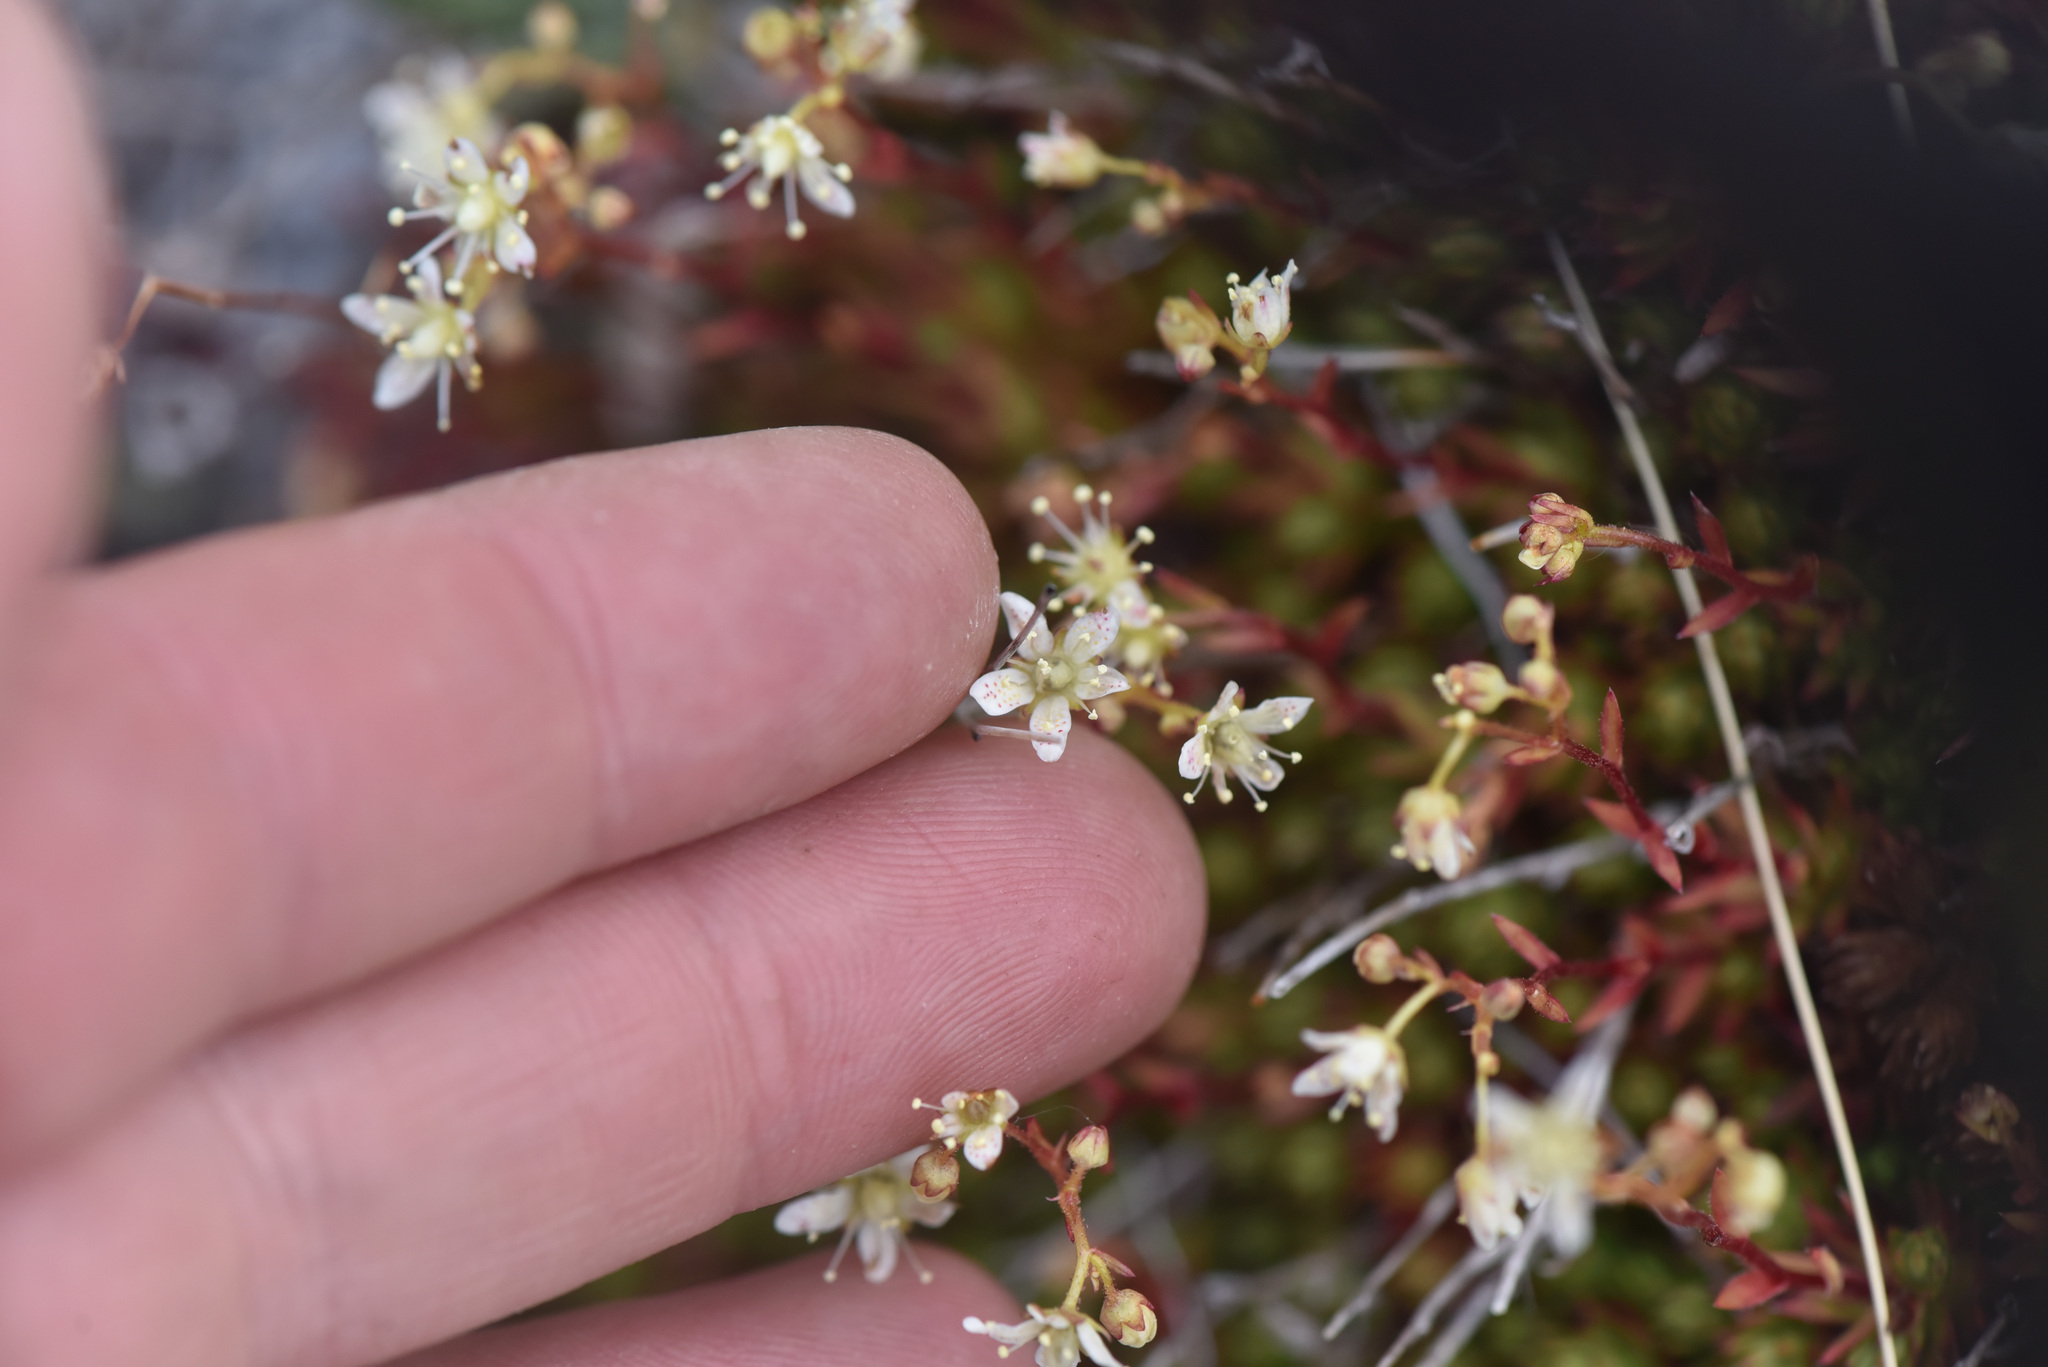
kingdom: Plantae
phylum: Tracheophyta
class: Magnoliopsida
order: Saxifragales
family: Saxifragaceae
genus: Saxifraga
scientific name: Saxifraga bronchialis
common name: Matted saxifrage
